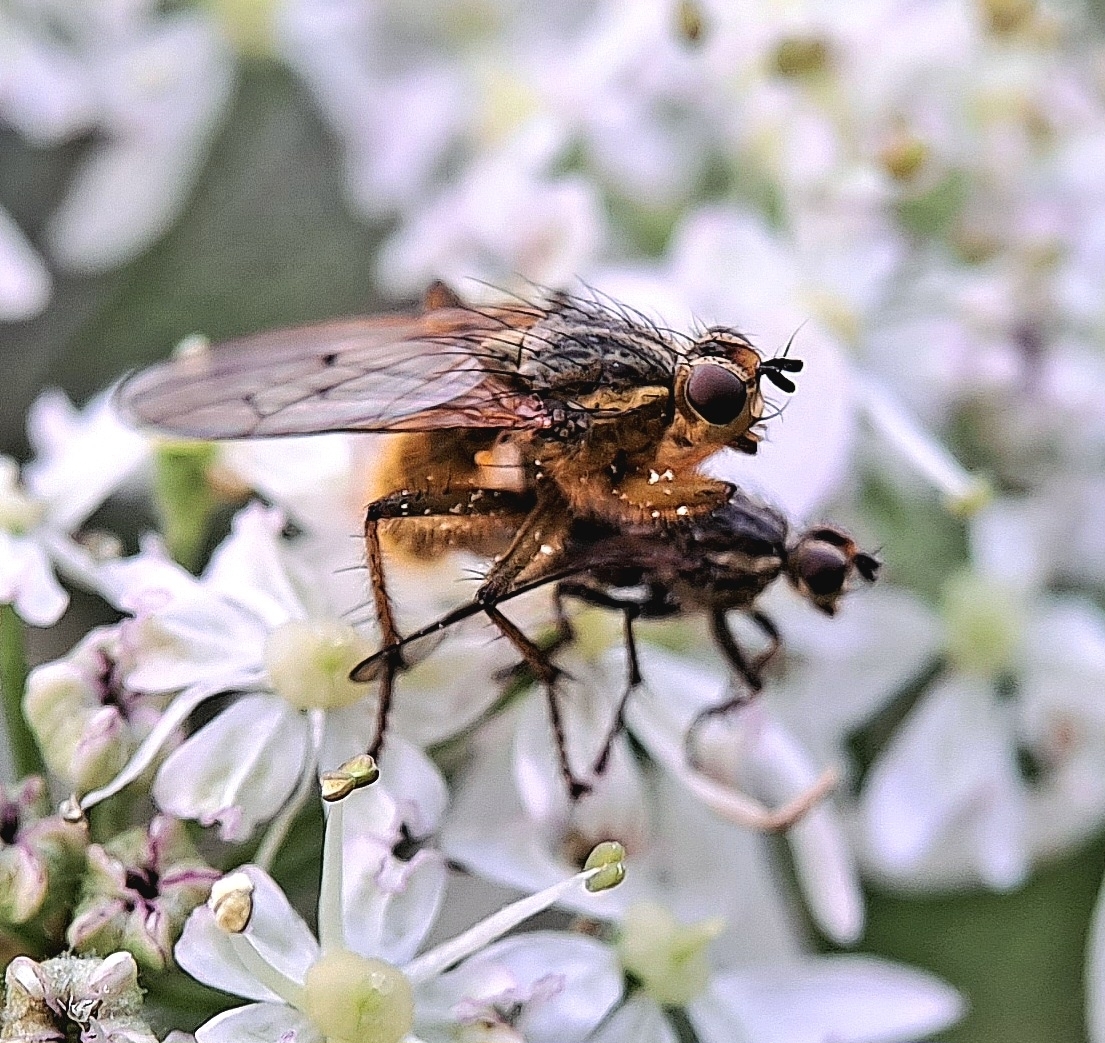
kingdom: Animalia
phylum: Arthropoda
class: Insecta
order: Diptera
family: Scathophagidae
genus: Scathophaga
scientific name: Scathophaga stercoraria
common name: Yellow dung fly
